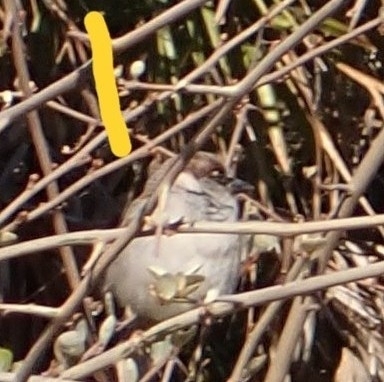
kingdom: Animalia
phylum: Chordata
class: Aves
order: Passeriformes
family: Passeridae
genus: Passer
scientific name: Passer domesticus
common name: House sparrow
